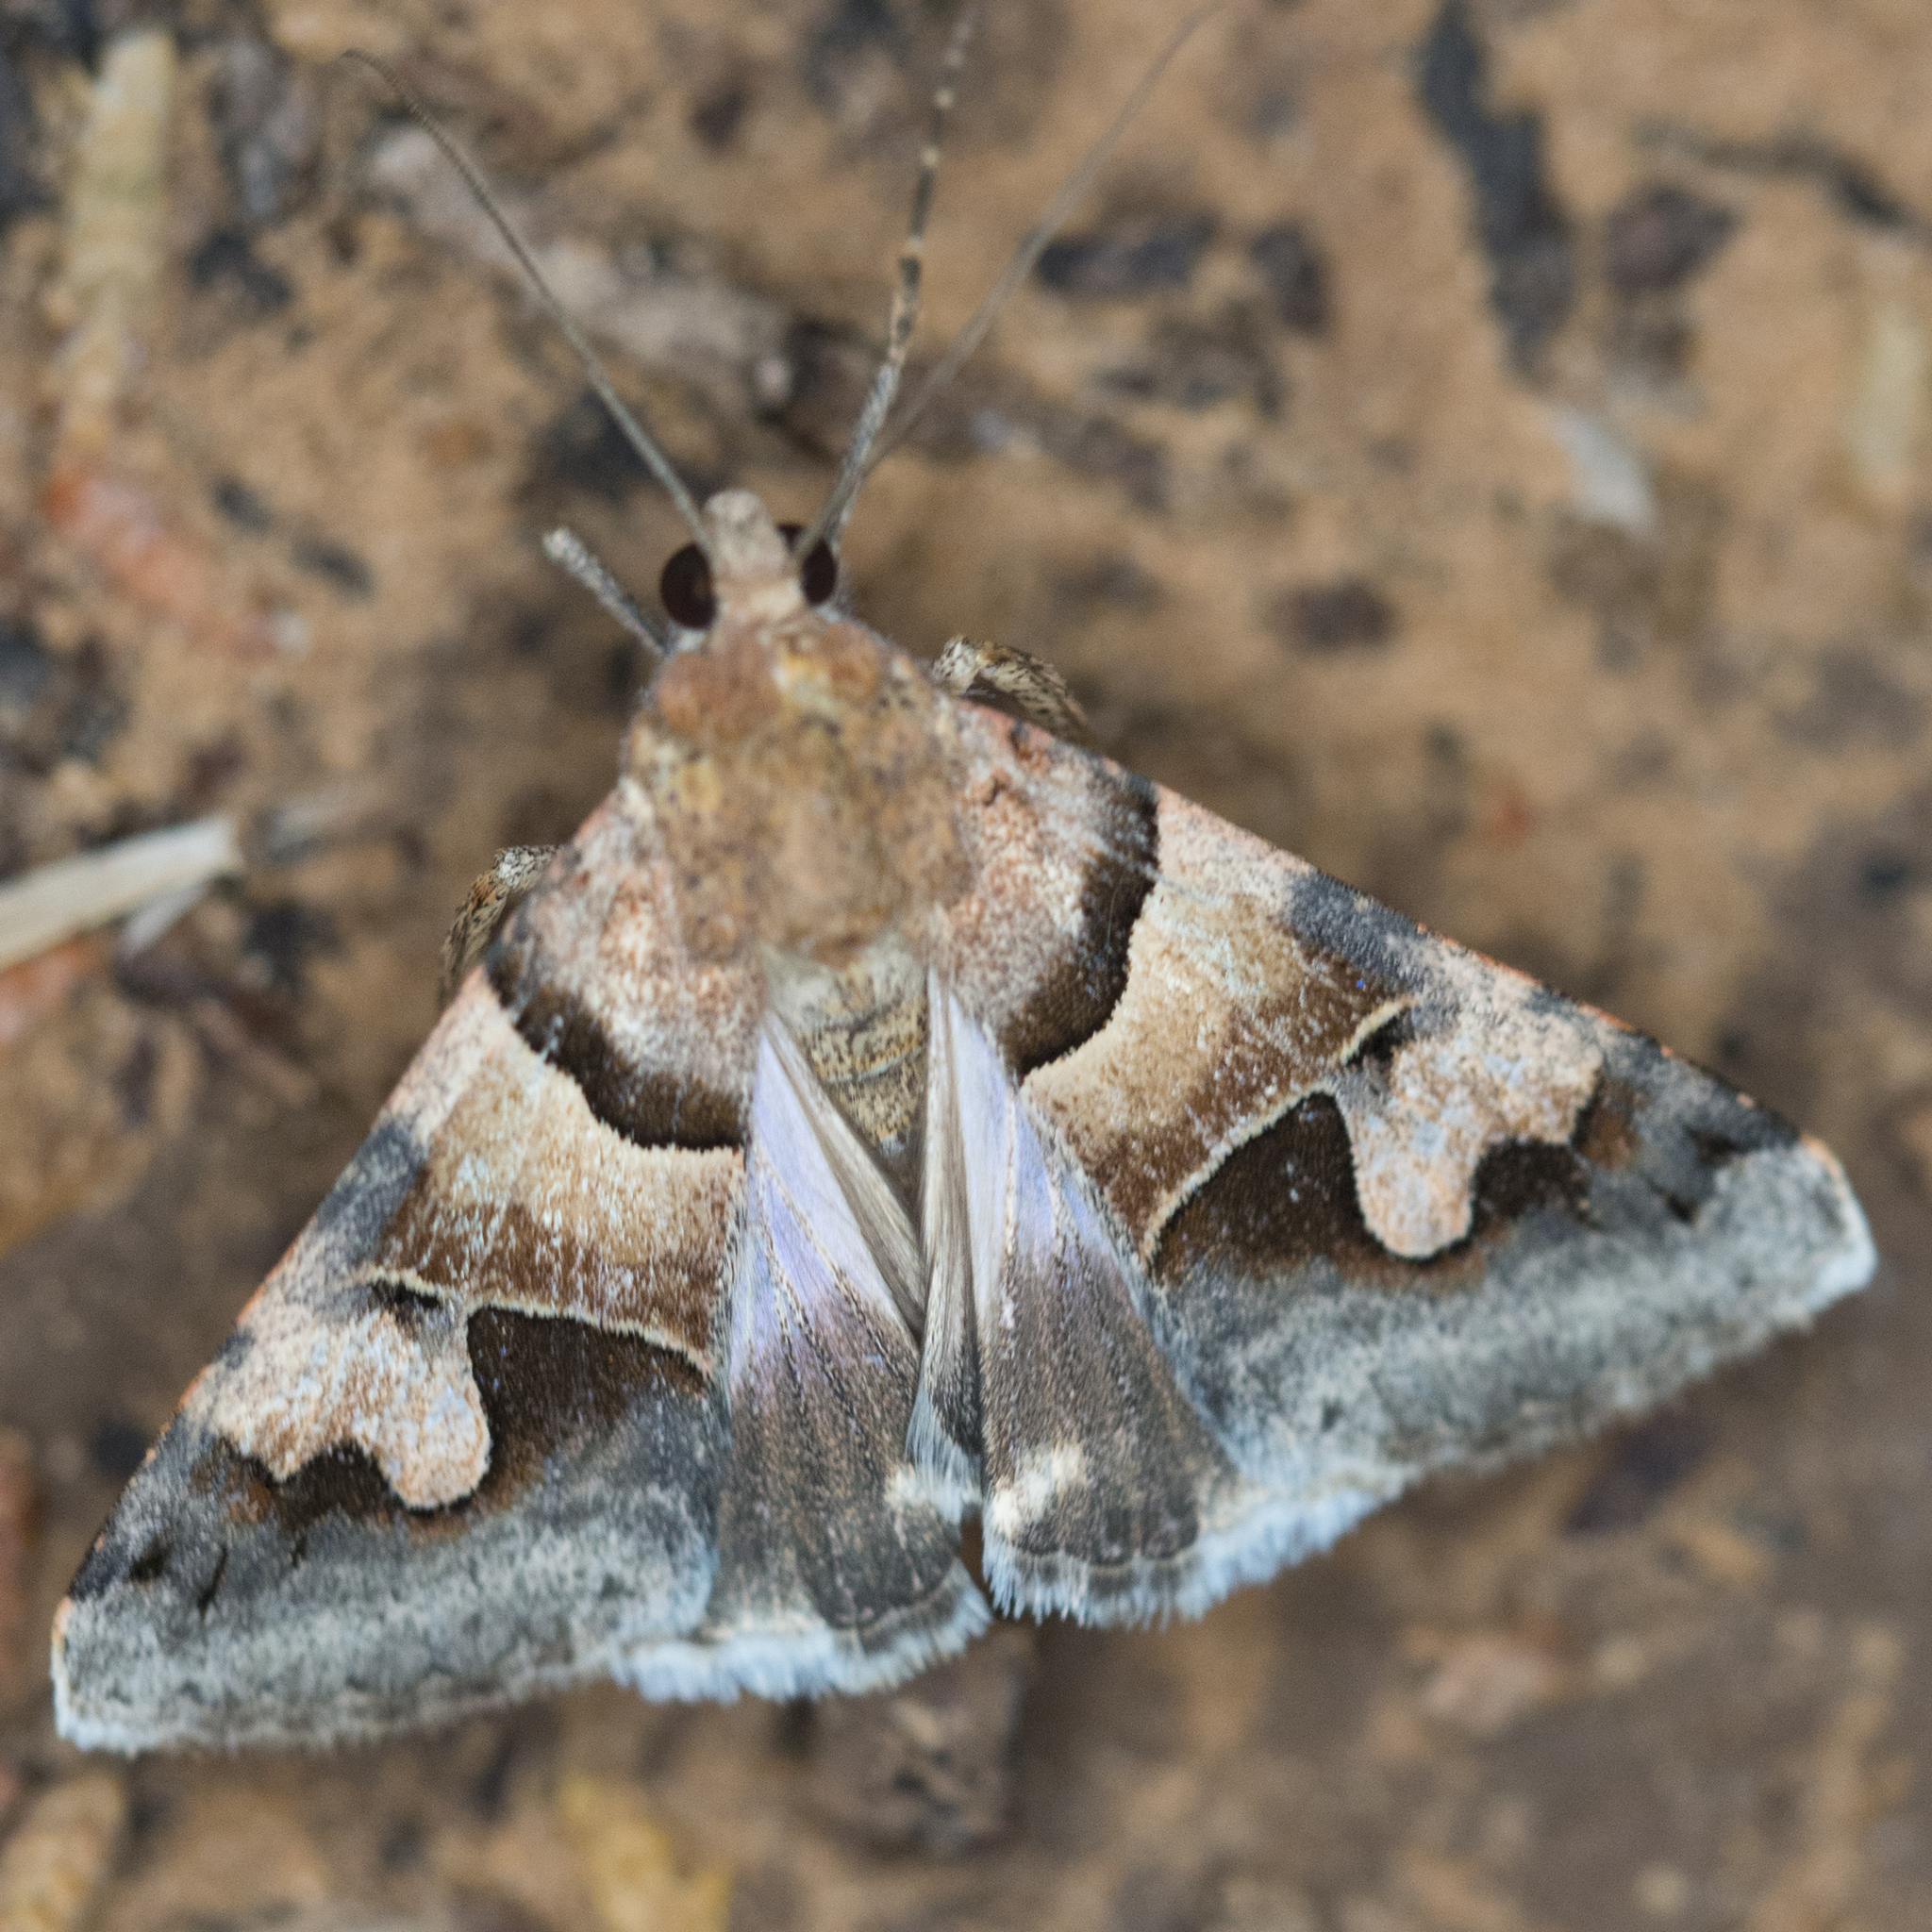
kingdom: Animalia
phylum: Arthropoda
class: Insecta
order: Lepidoptera
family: Erebidae
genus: Drasteria
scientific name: Drasteria pallescens
